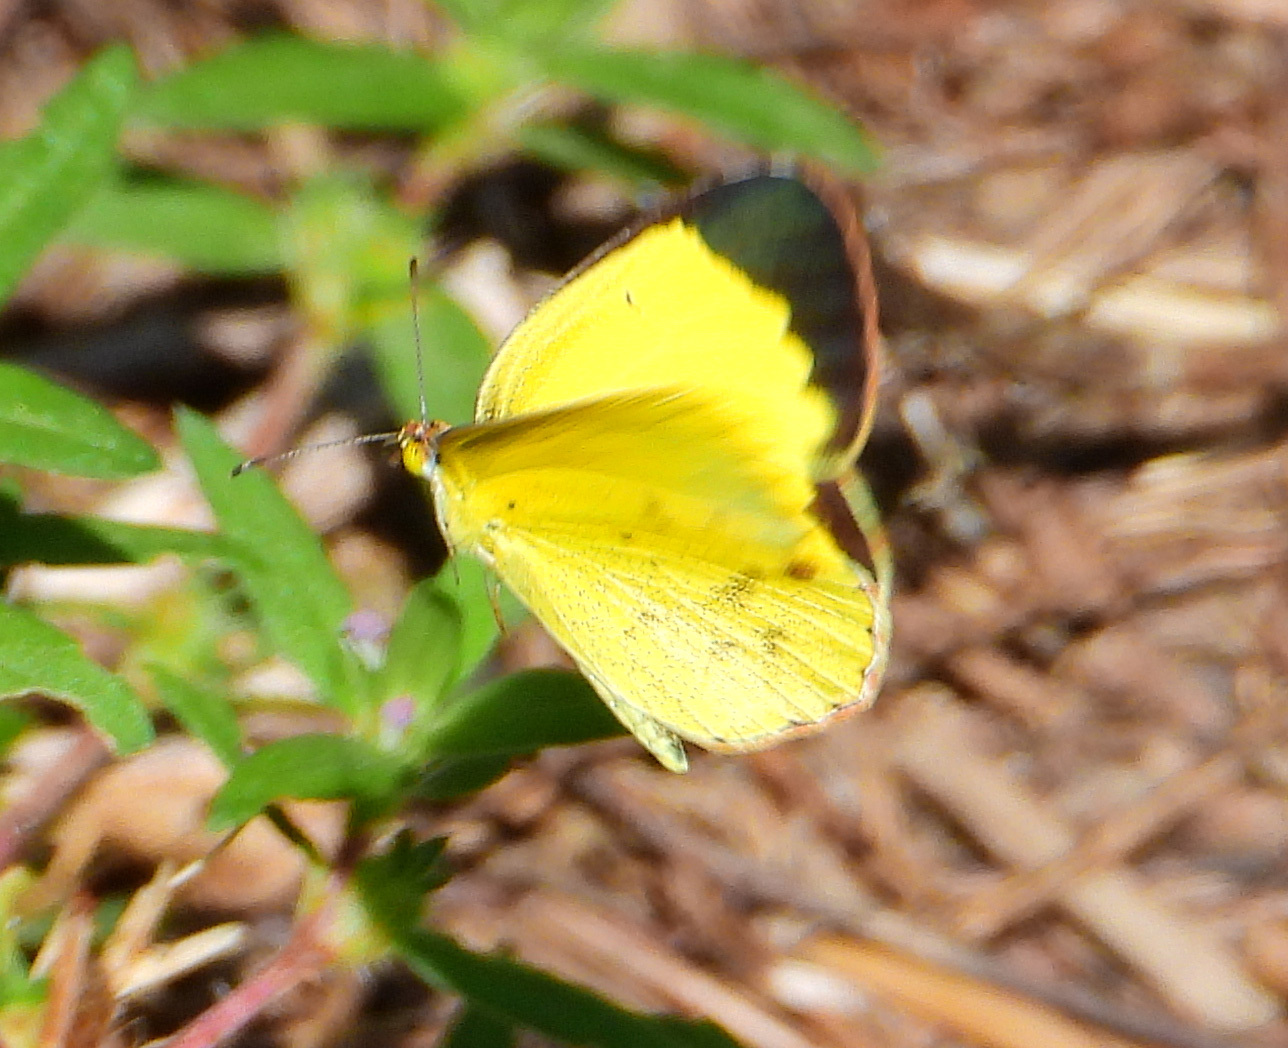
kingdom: Animalia
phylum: Arthropoda
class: Insecta
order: Lepidoptera
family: Pieridae
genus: Pyrisitia
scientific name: Pyrisitia lisa
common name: Little yellow
